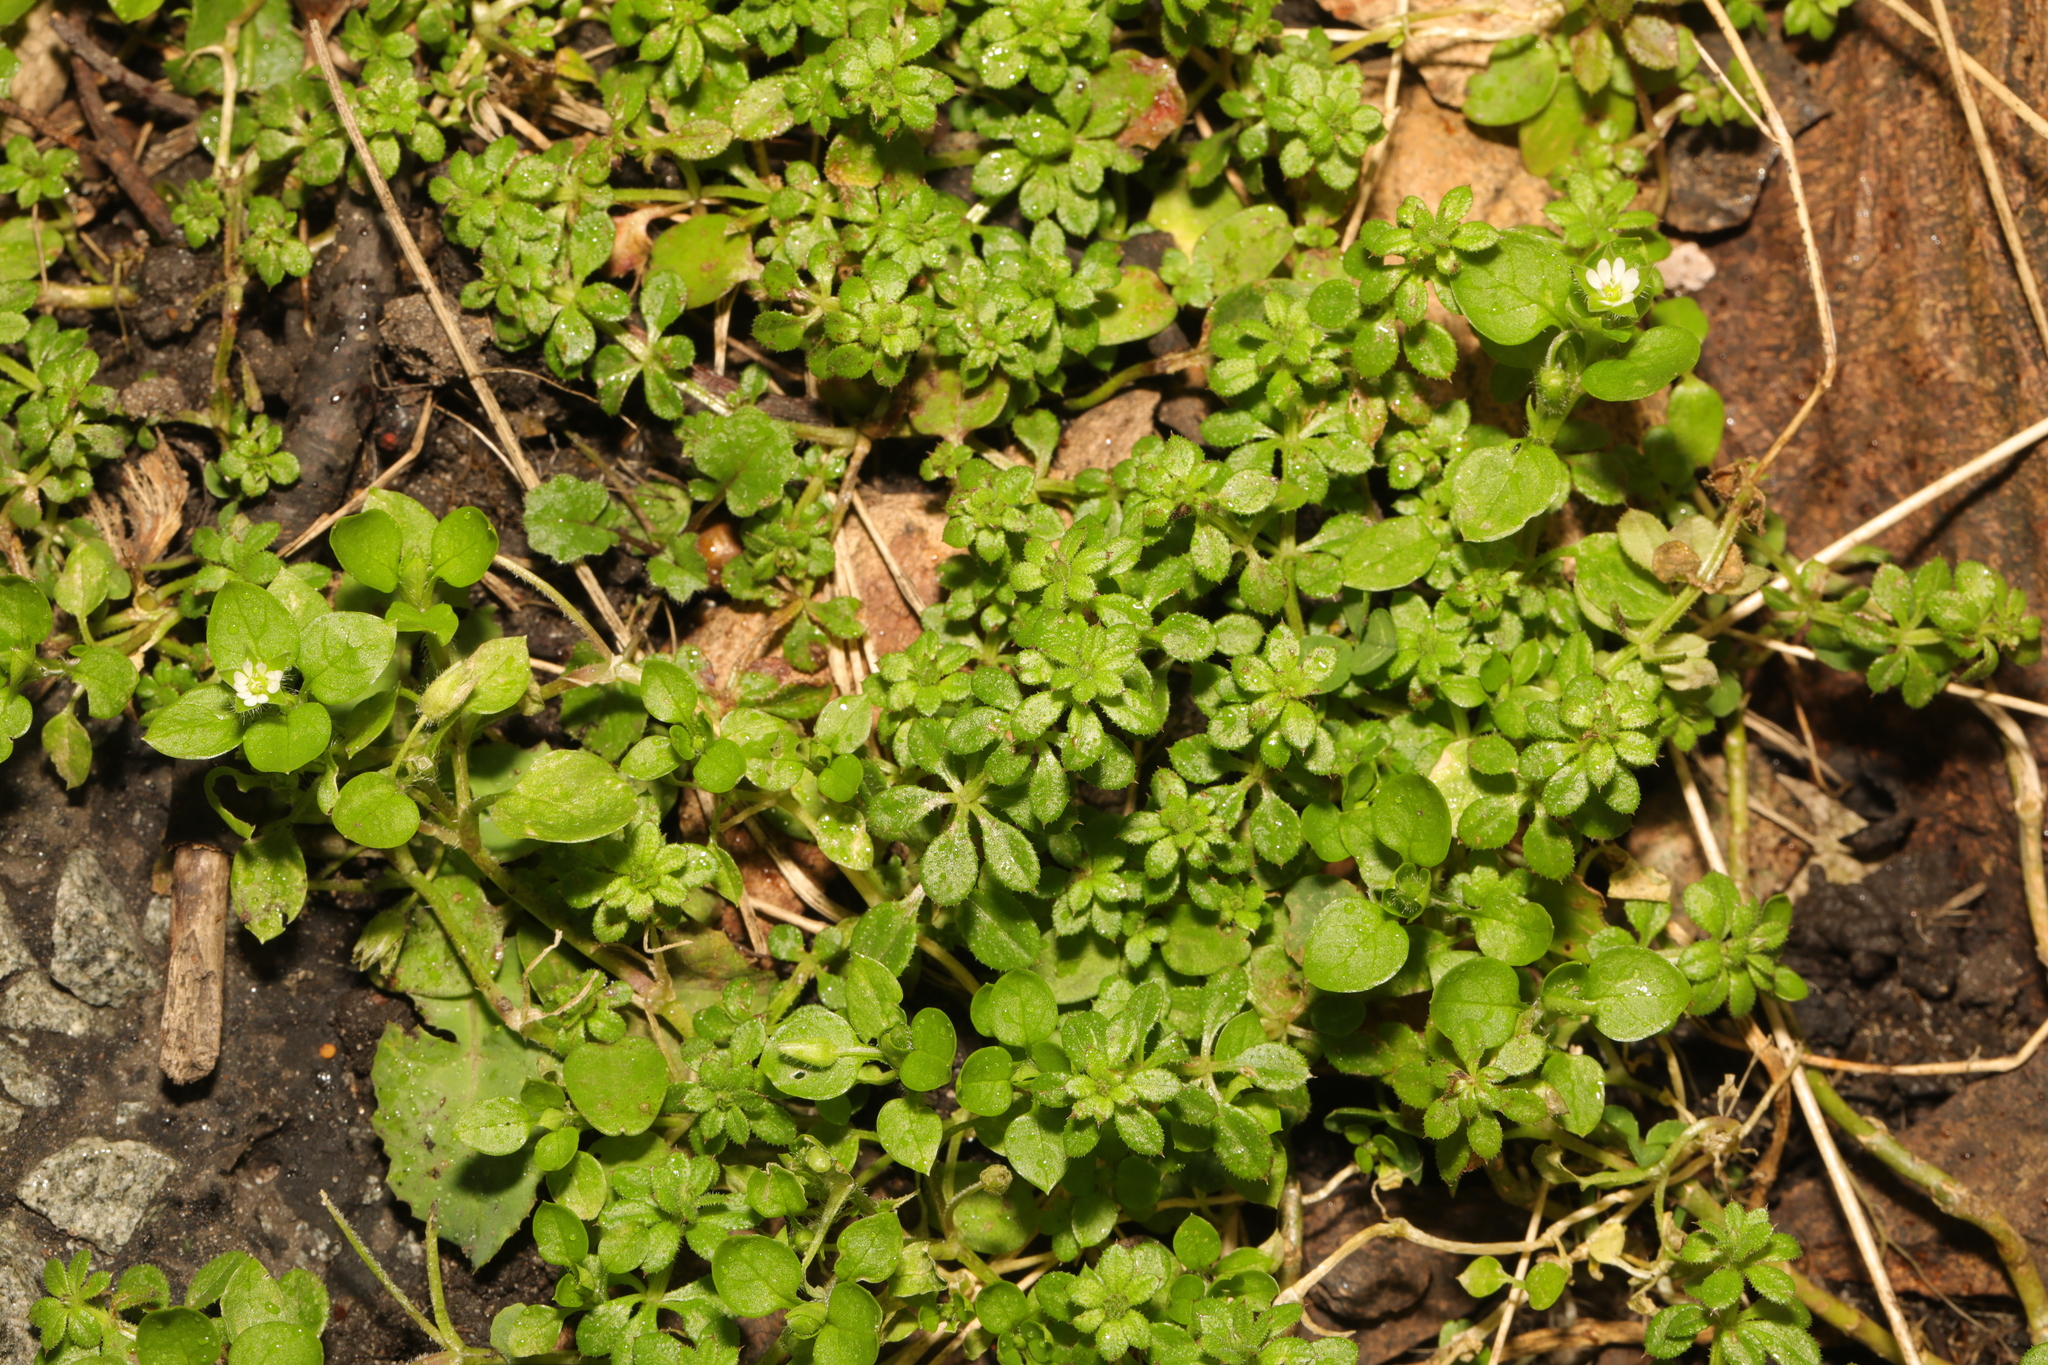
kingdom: Plantae
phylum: Tracheophyta
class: Magnoliopsida
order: Caryophyllales
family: Caryophyllaceae
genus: Stellaria
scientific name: Stellaria media
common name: Common chickweed
